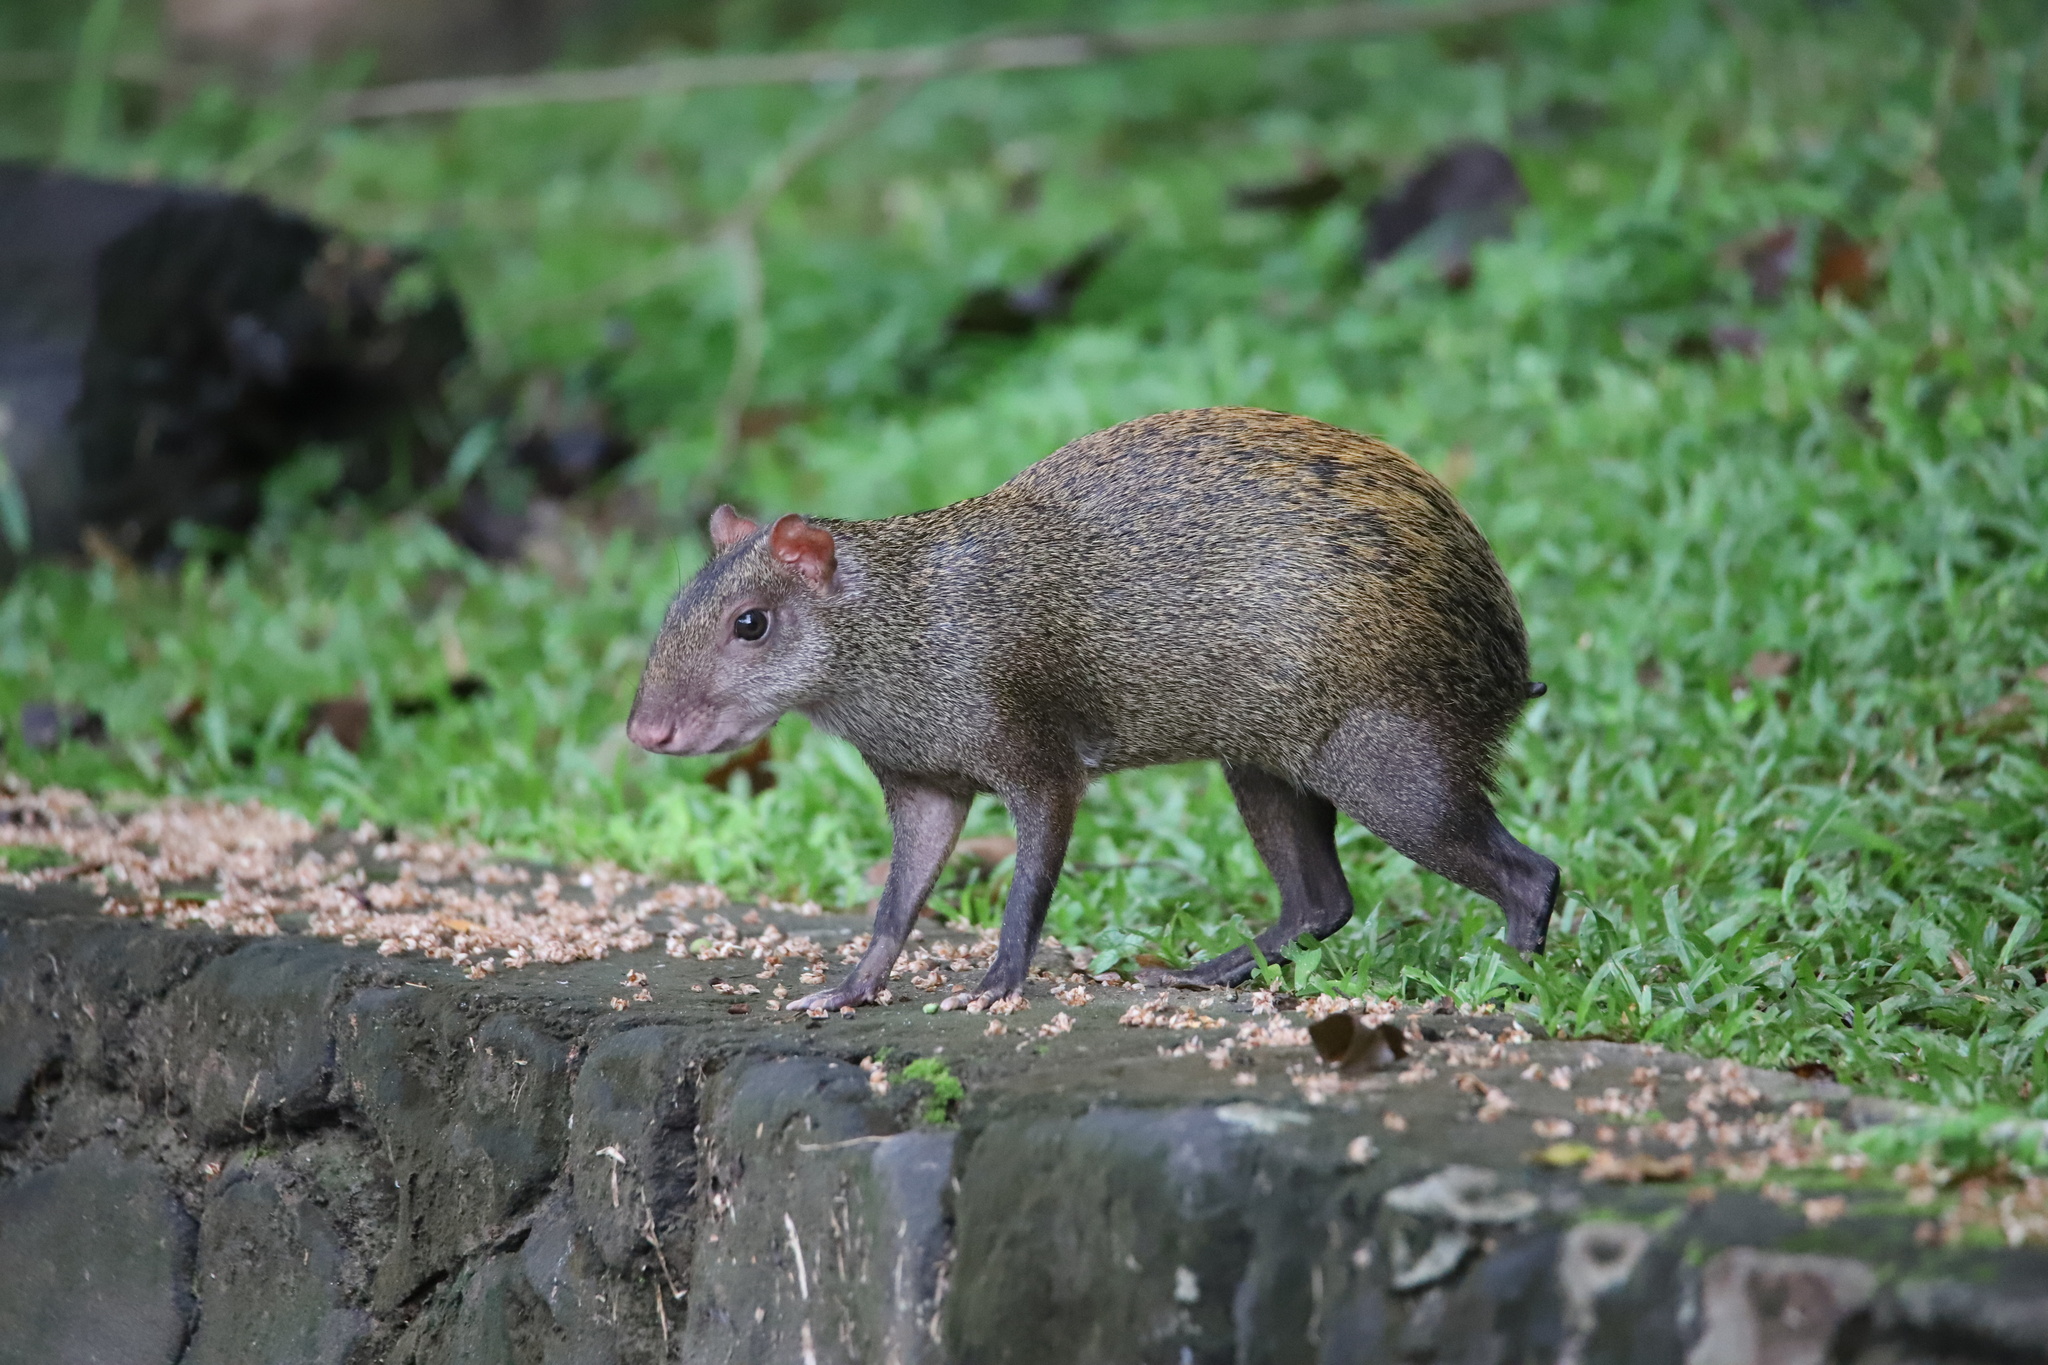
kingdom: Animalia
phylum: Chordata
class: Mammalia
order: Rodentia
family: Dasyproctidae
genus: Dasyprocta
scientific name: Dasyprocta punctata
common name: Central american agouti
